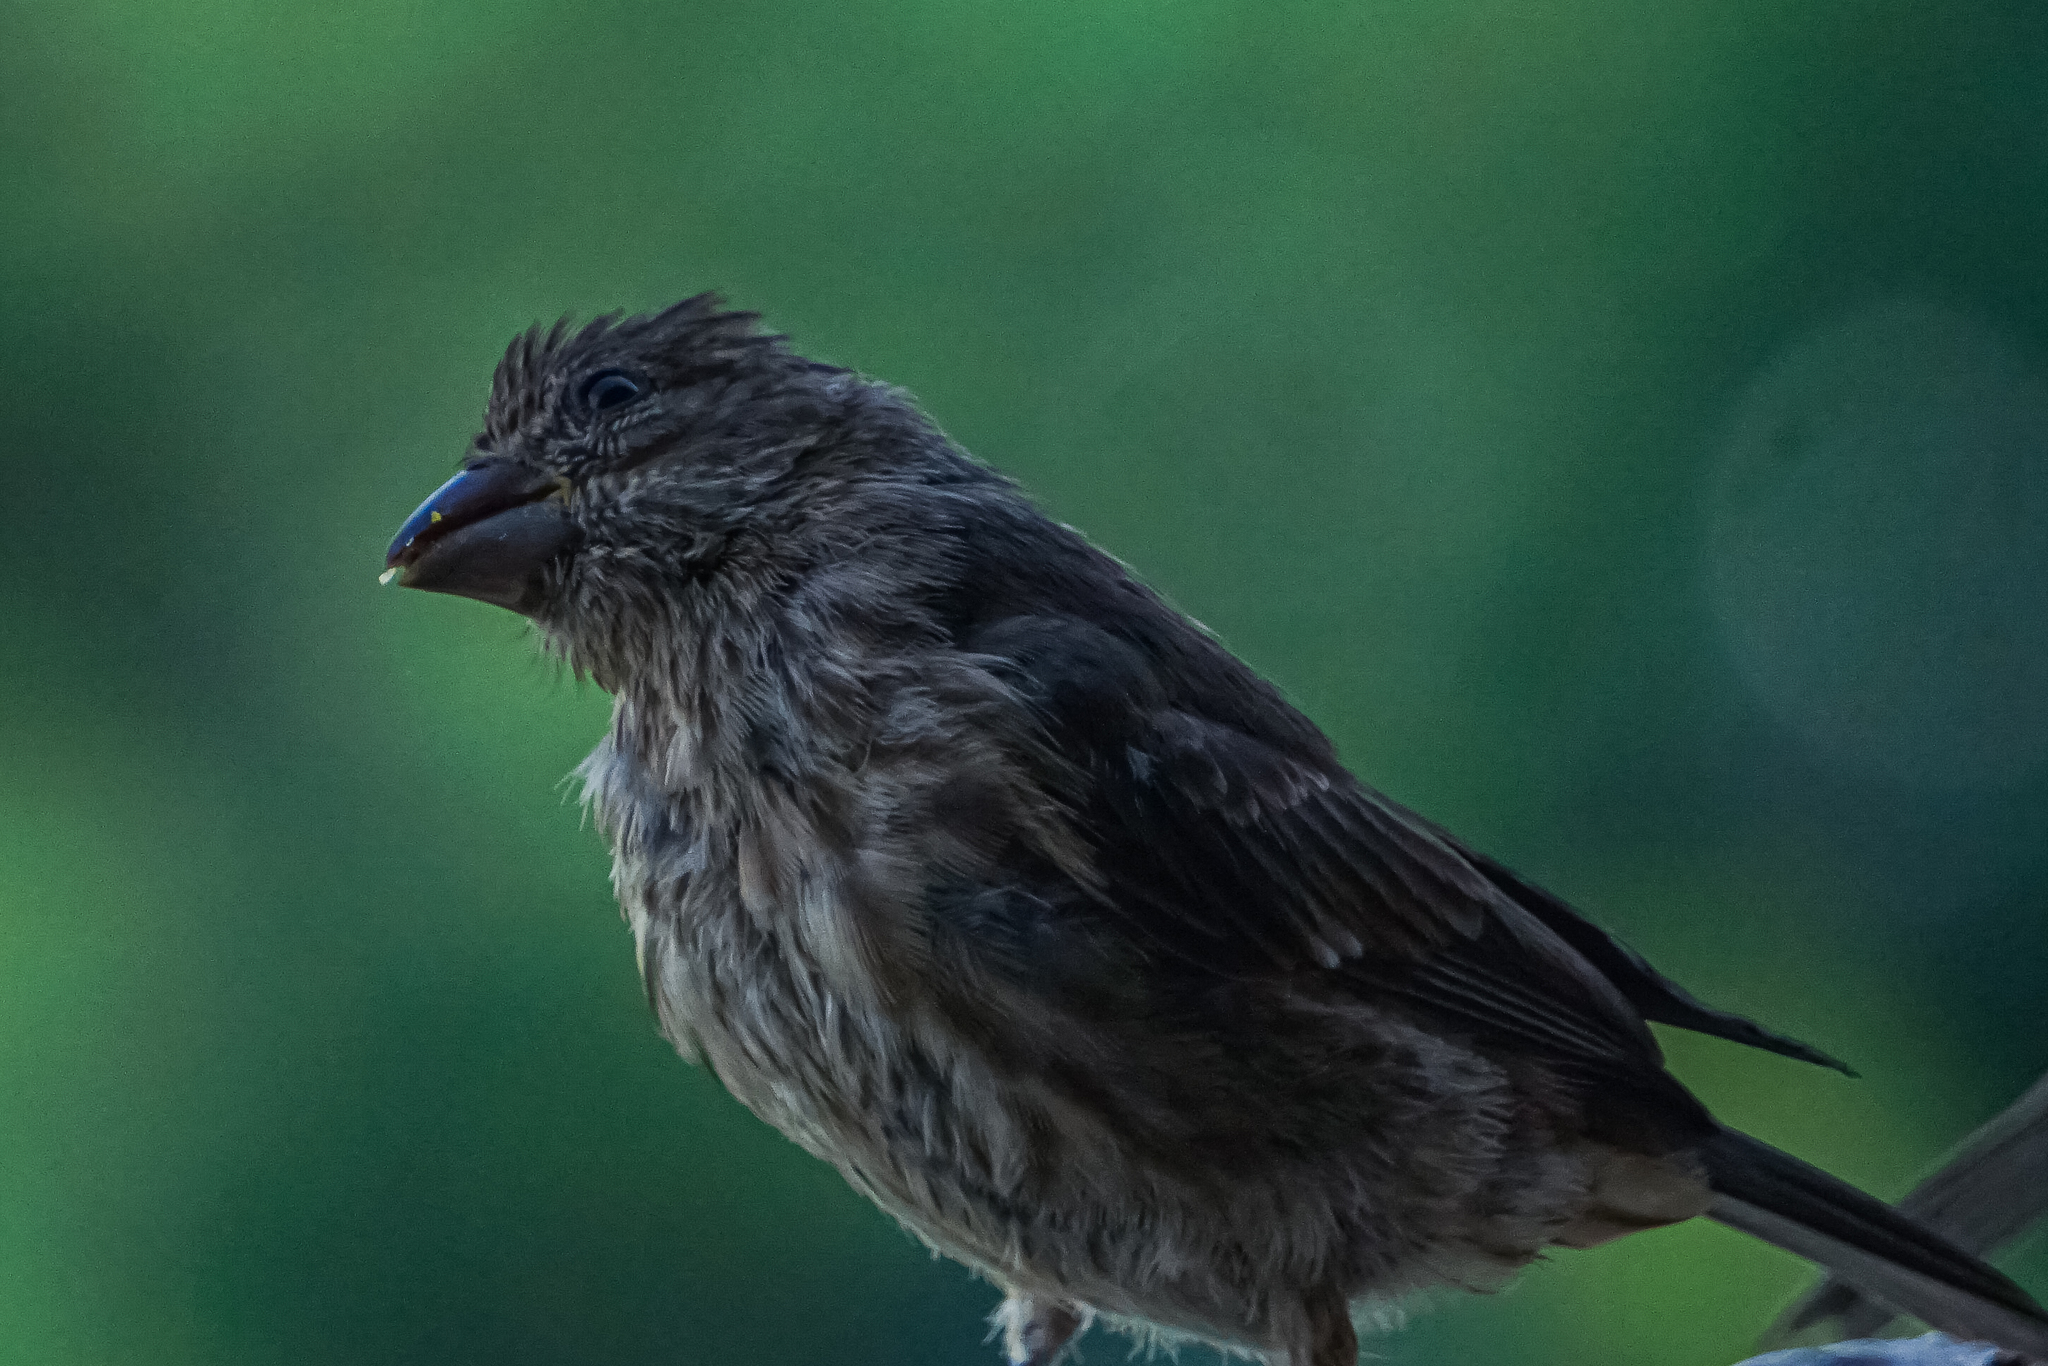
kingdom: Animalia
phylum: Chordata
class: Aves
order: Passeriformes
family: Fringillidae
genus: Haemorhous
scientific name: Haemorhous mexicanus
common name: House finch
